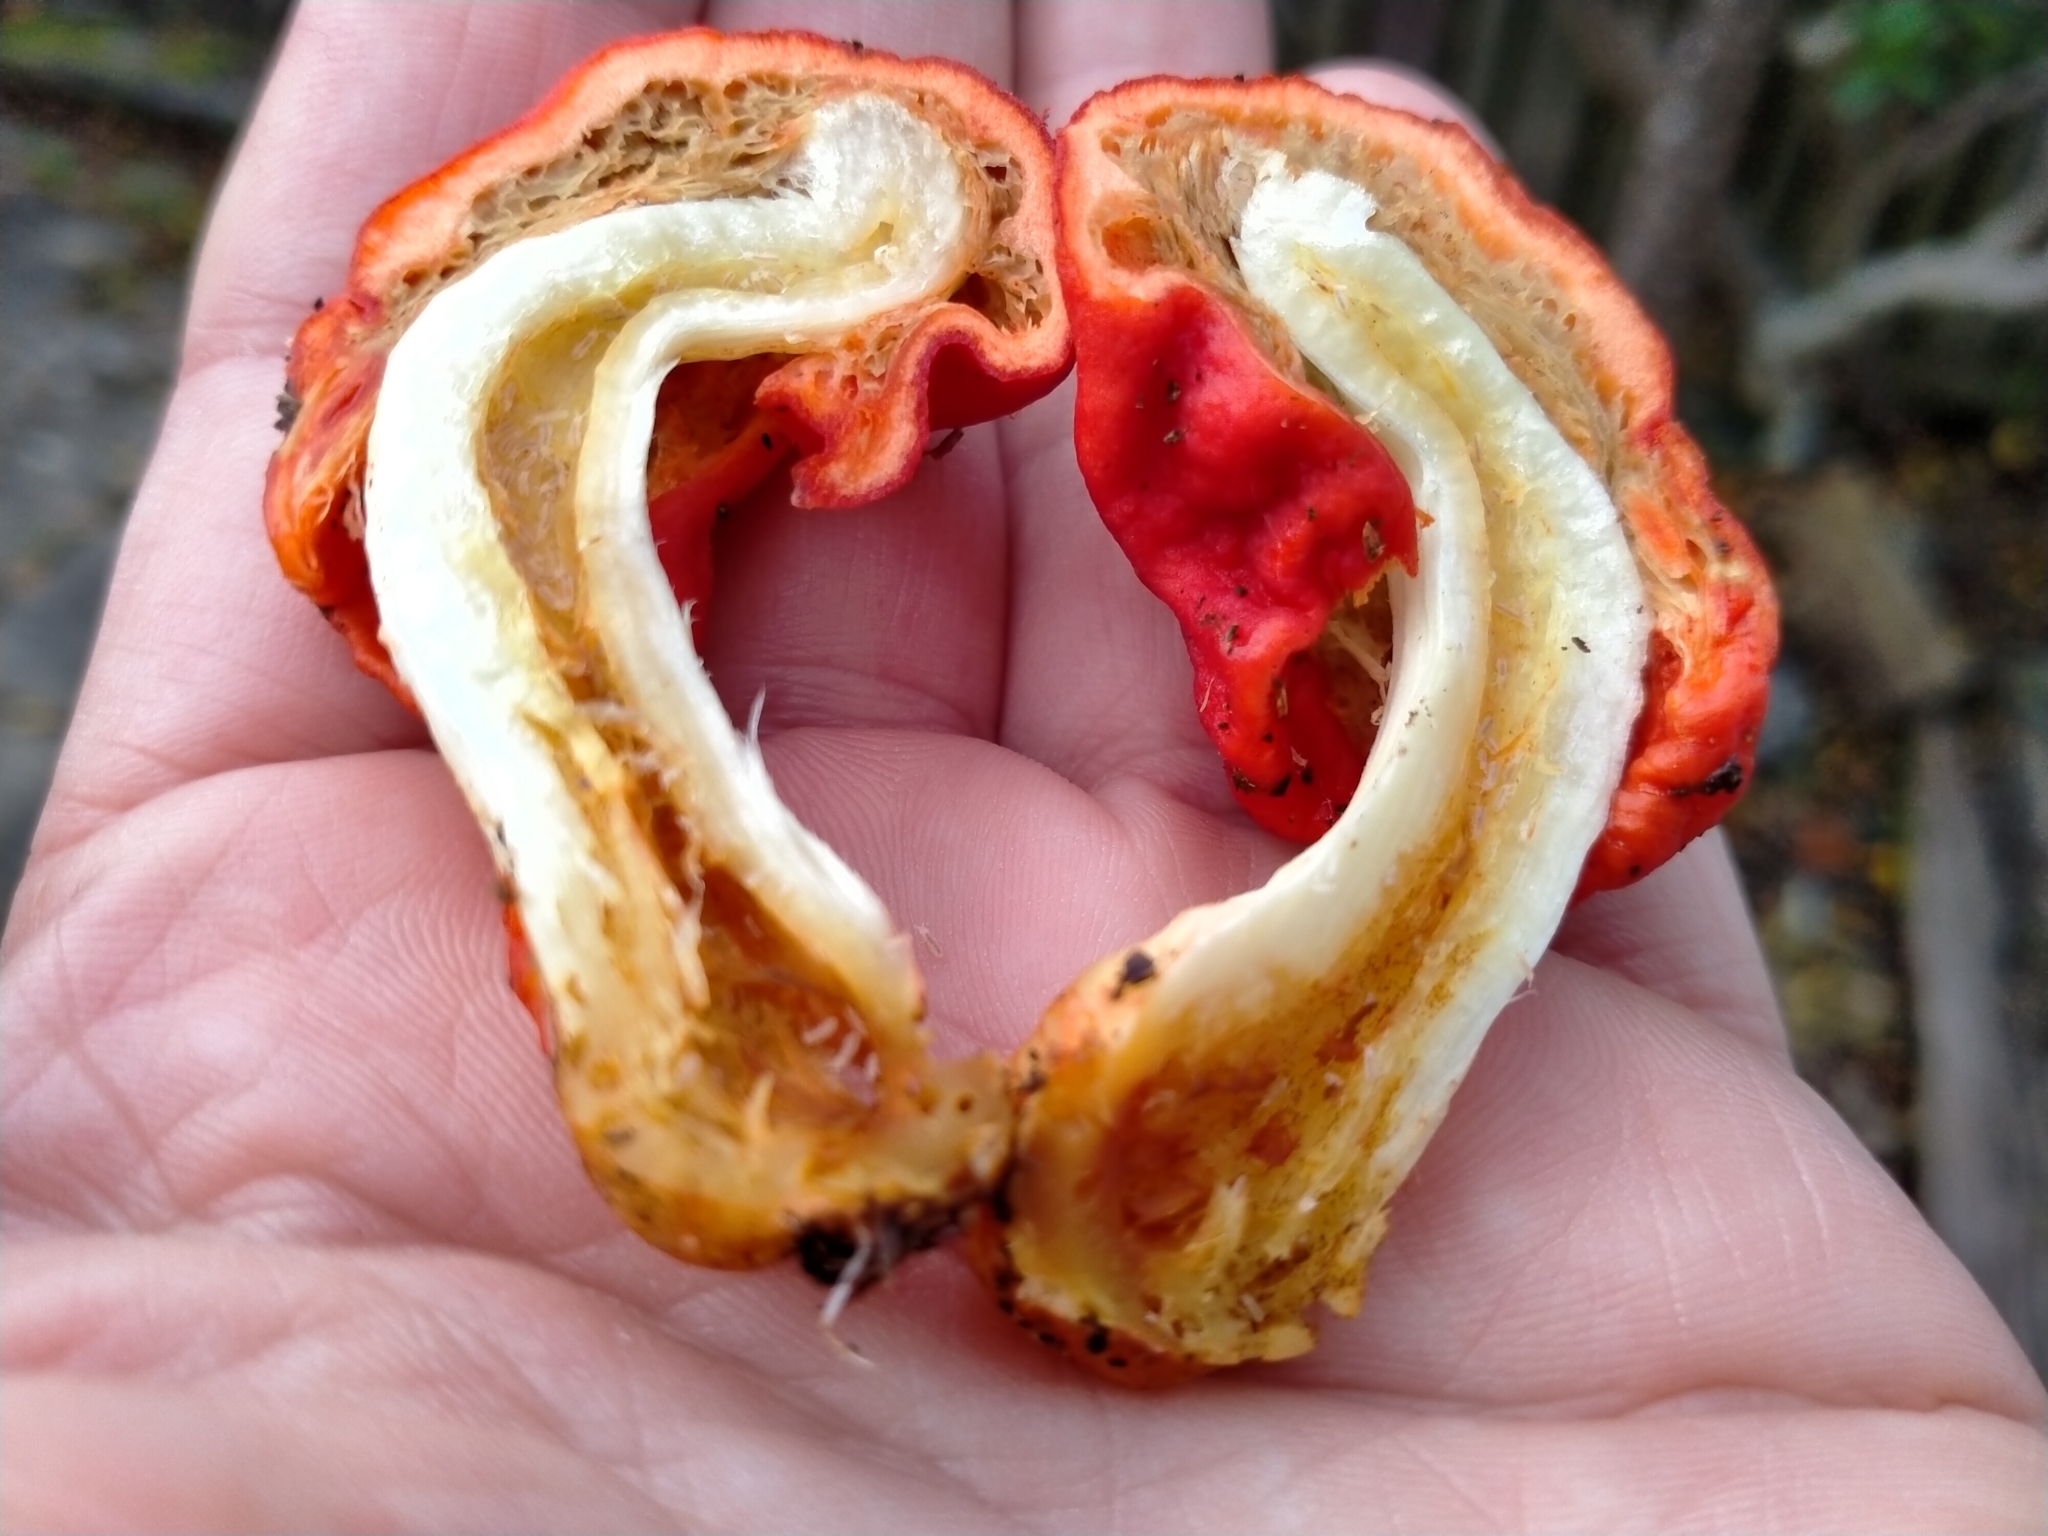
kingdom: Fungi
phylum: Basidiomycota
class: Agaricomycetes
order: Agaricales
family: Strophariaceae
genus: Leratiomyces
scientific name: Leratiomyces erythrocephalus
